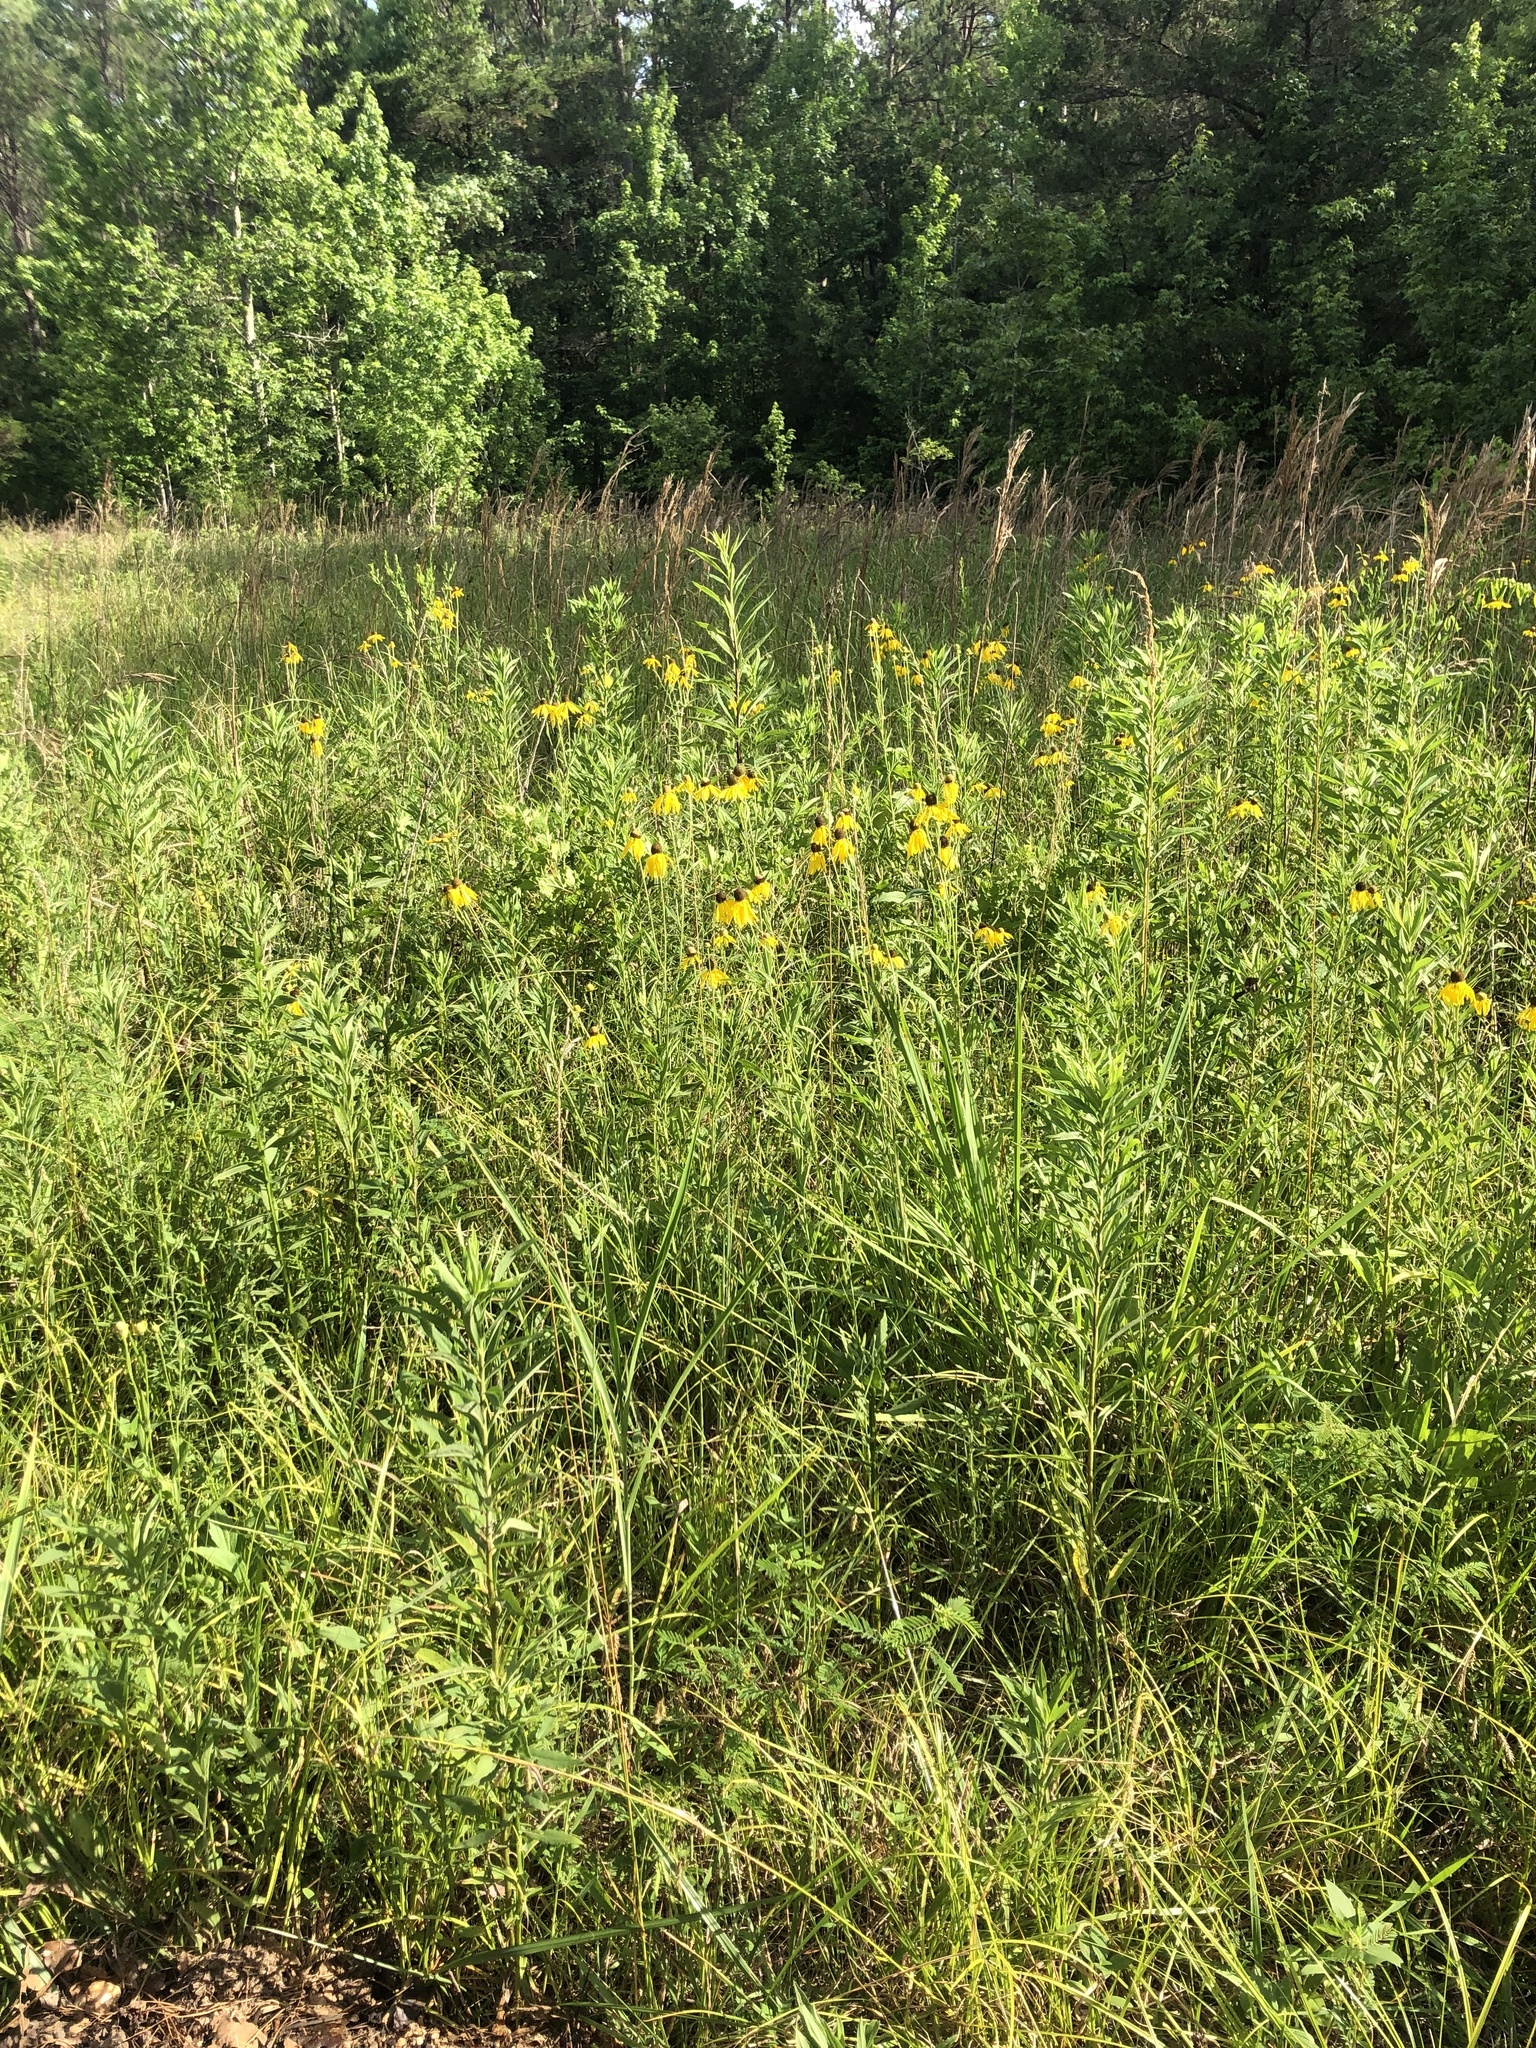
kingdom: Plantae
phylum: Tracheophyta
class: Magnoliopsida
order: Asterales
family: Asteraceae
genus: Ratibida
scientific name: Ratibida pinnata
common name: Drooping prairie-coneflower
